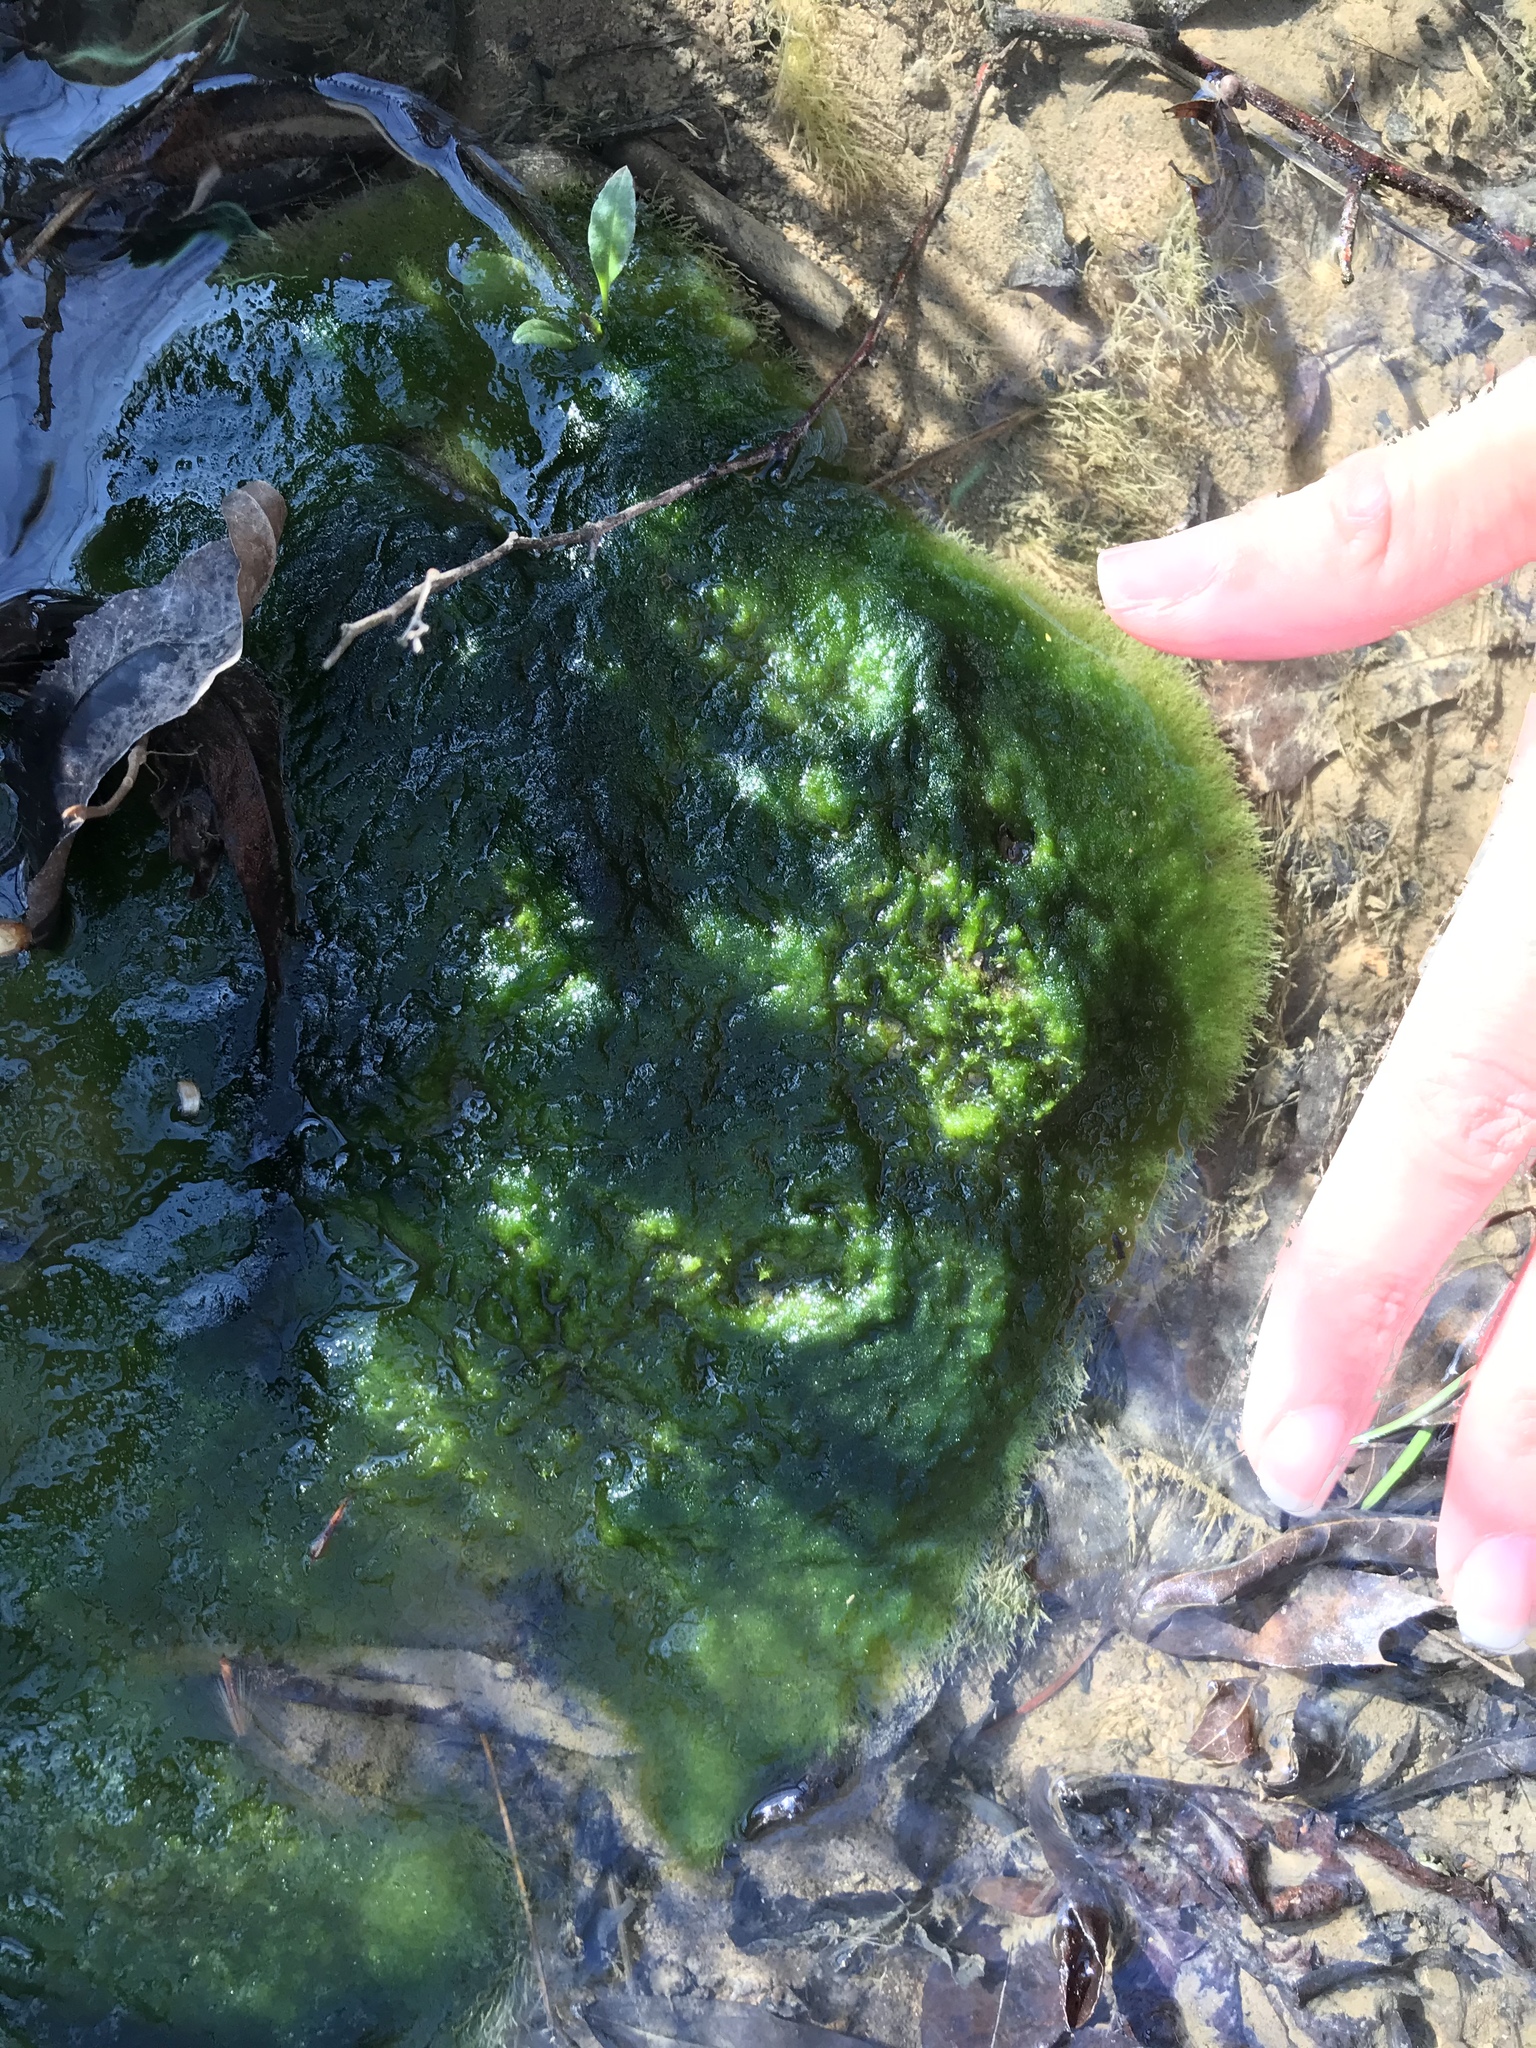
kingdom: Chromista
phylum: Ochrophyta
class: Xanthophyceae
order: Vaucheriales
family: Vaucheriaceae
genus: Vaucheria
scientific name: Vaucheria
